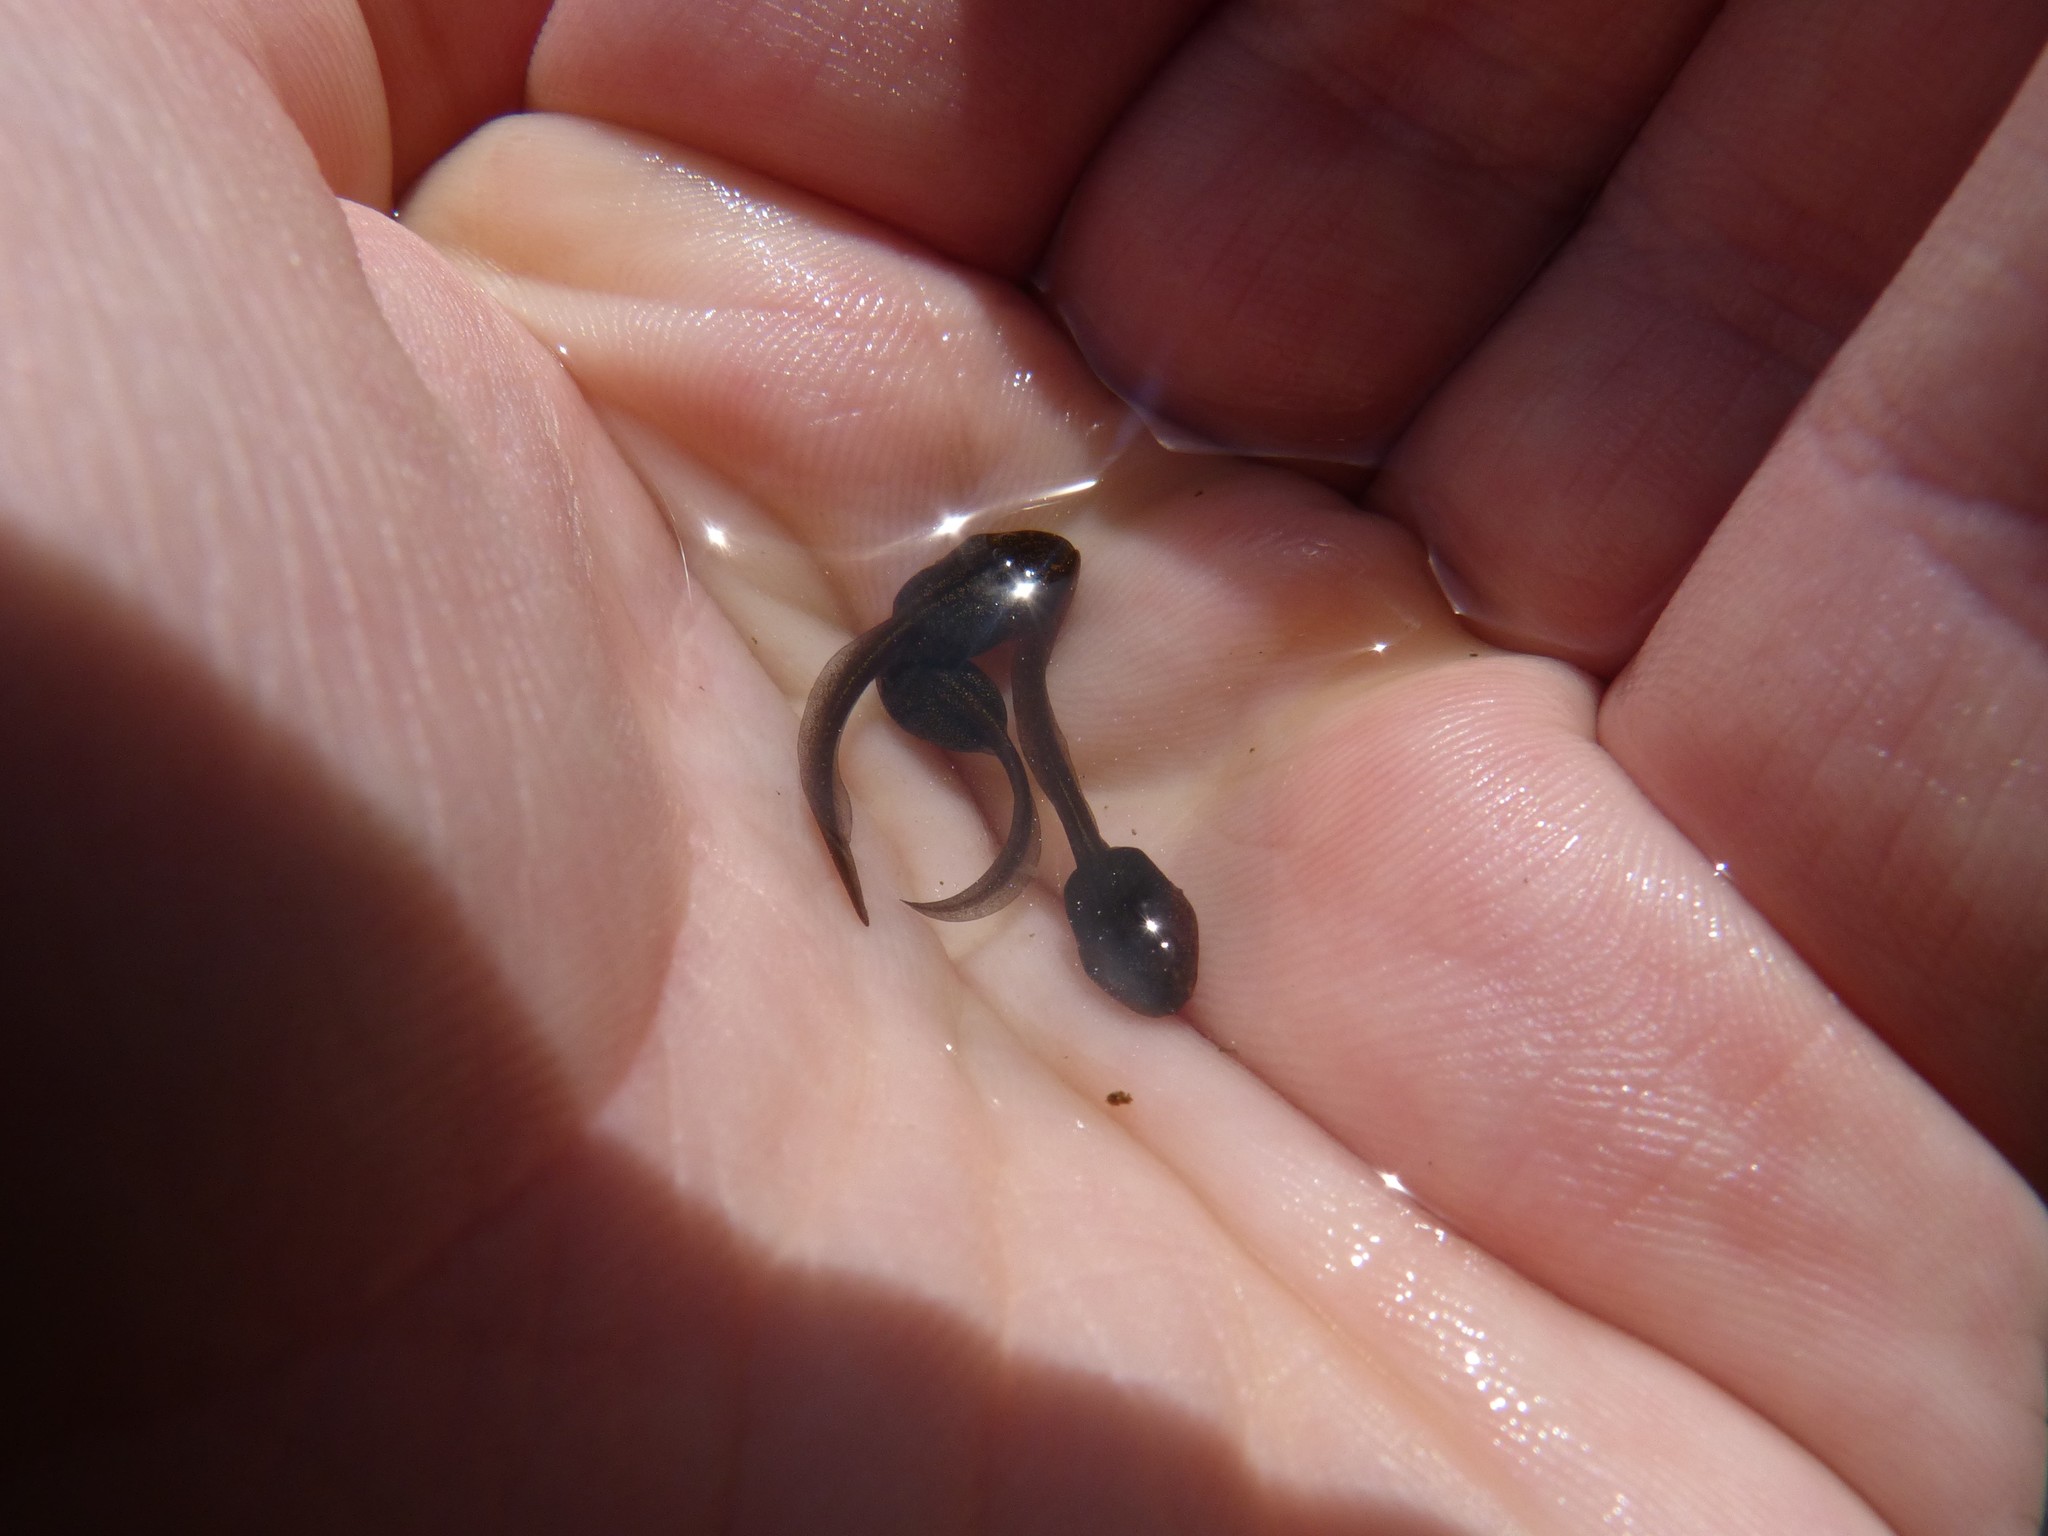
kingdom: Animalia
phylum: Chordata
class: Amphibia
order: Anura
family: Ranidae
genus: Rana
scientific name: Rana temporaria
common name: Common frog
